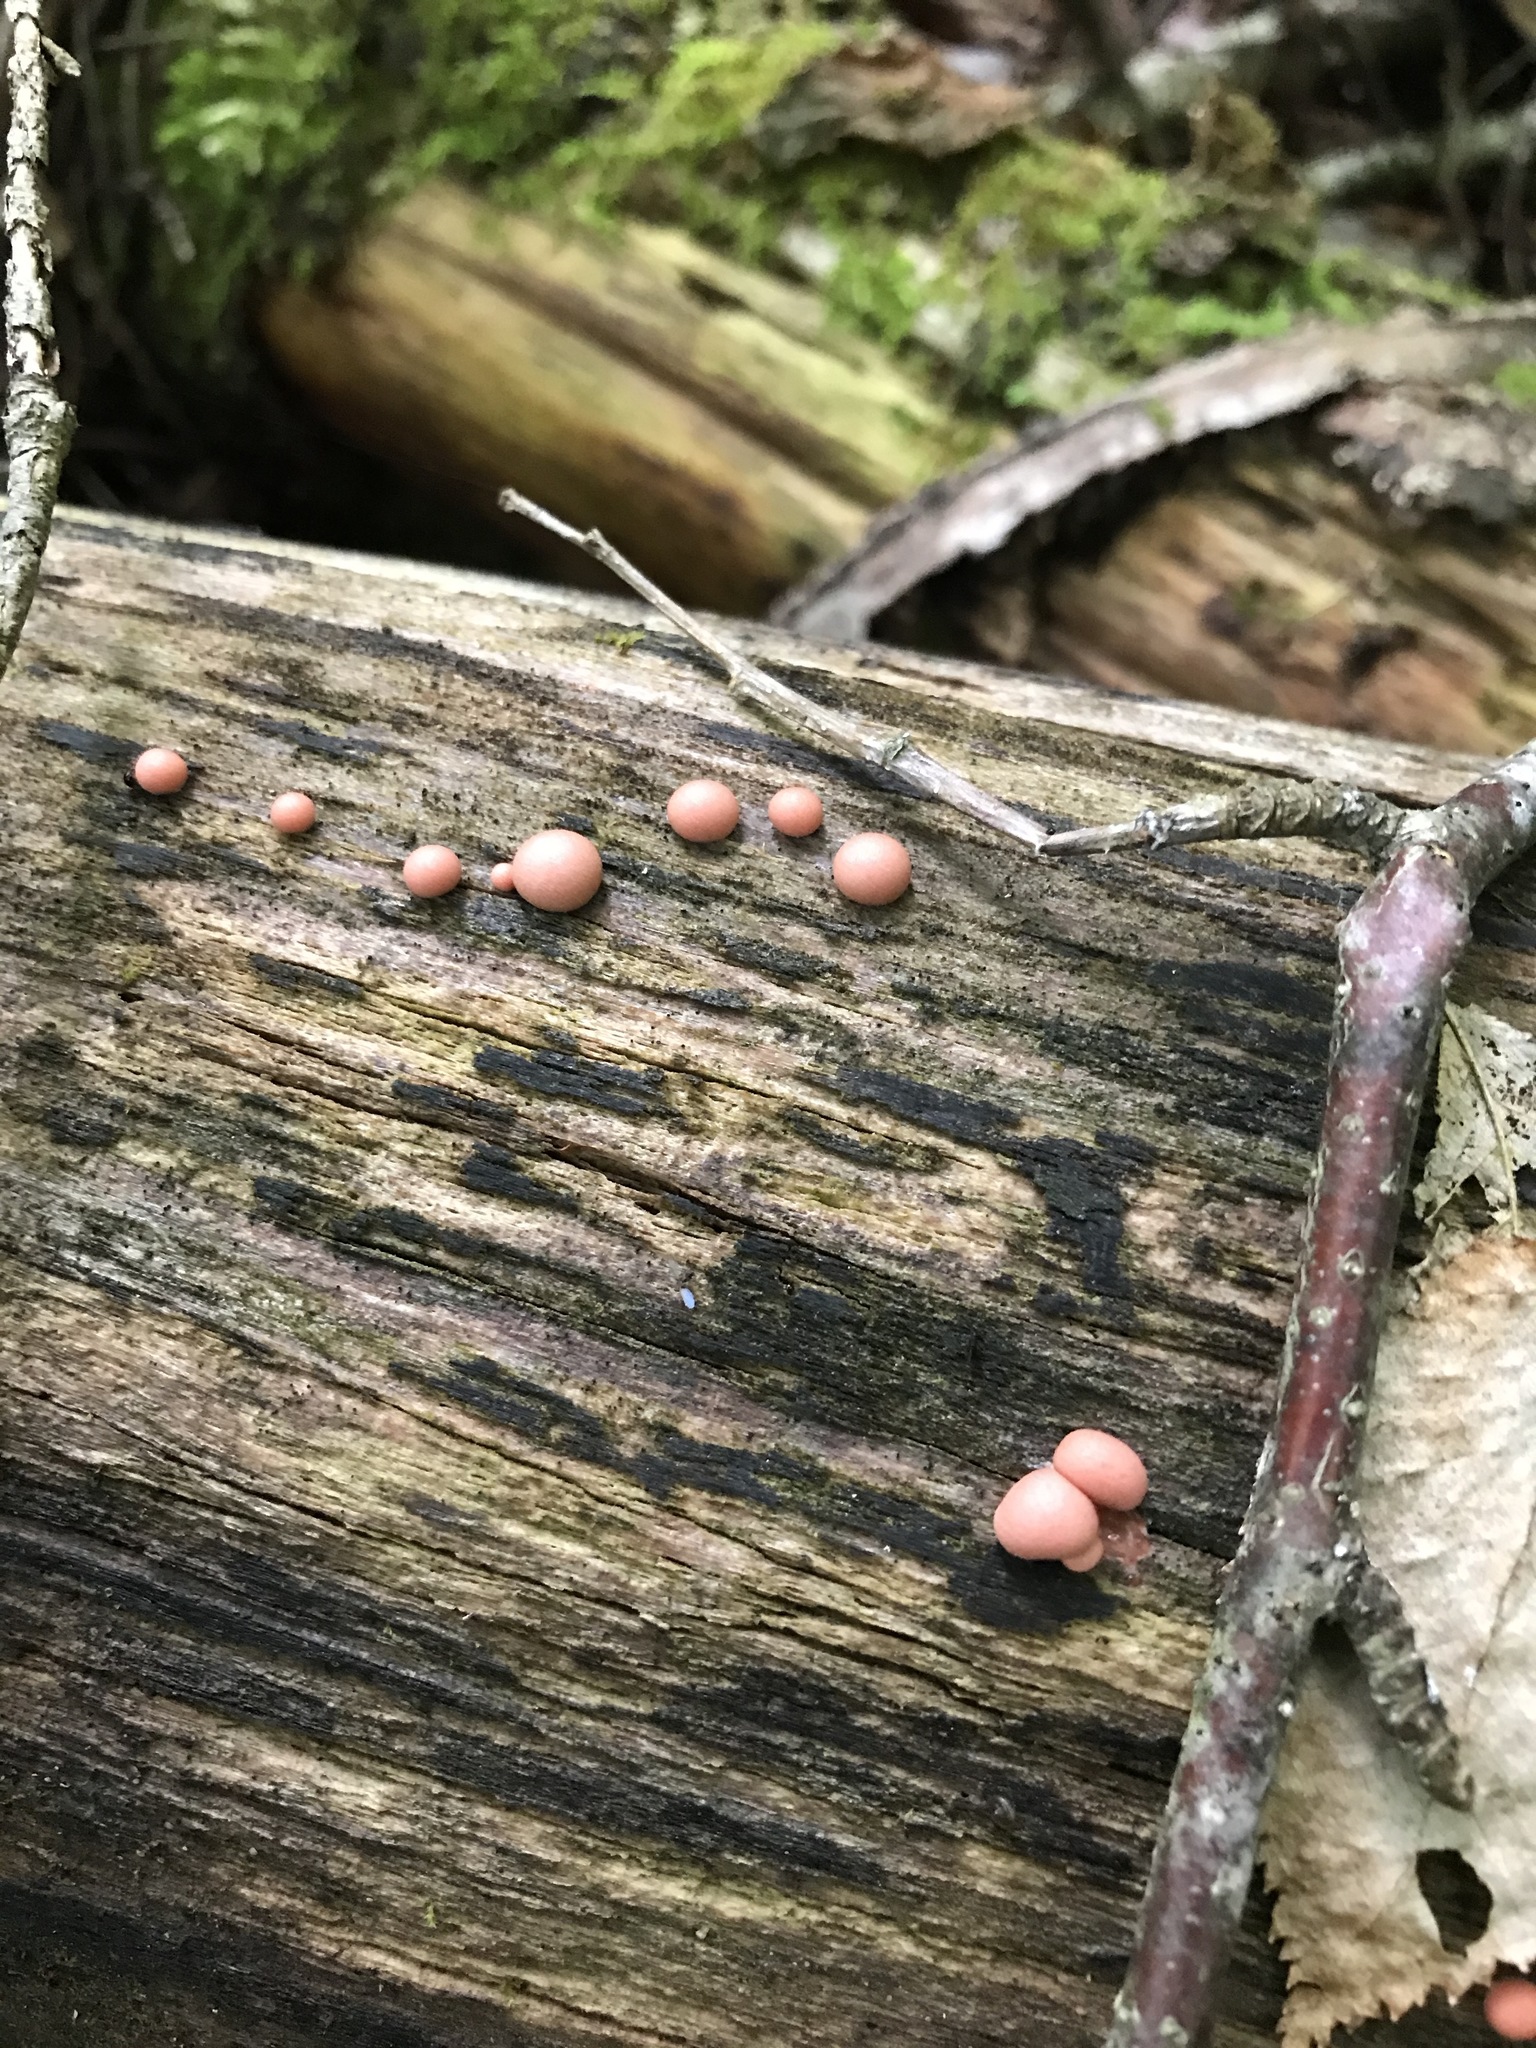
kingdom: Protozoa
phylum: Mycetozoa
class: Myxomycetes
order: Cribrariales
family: Tubiferaceae
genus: Lycogala
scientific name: Lycogala epidendrum
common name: Wolf's milk
